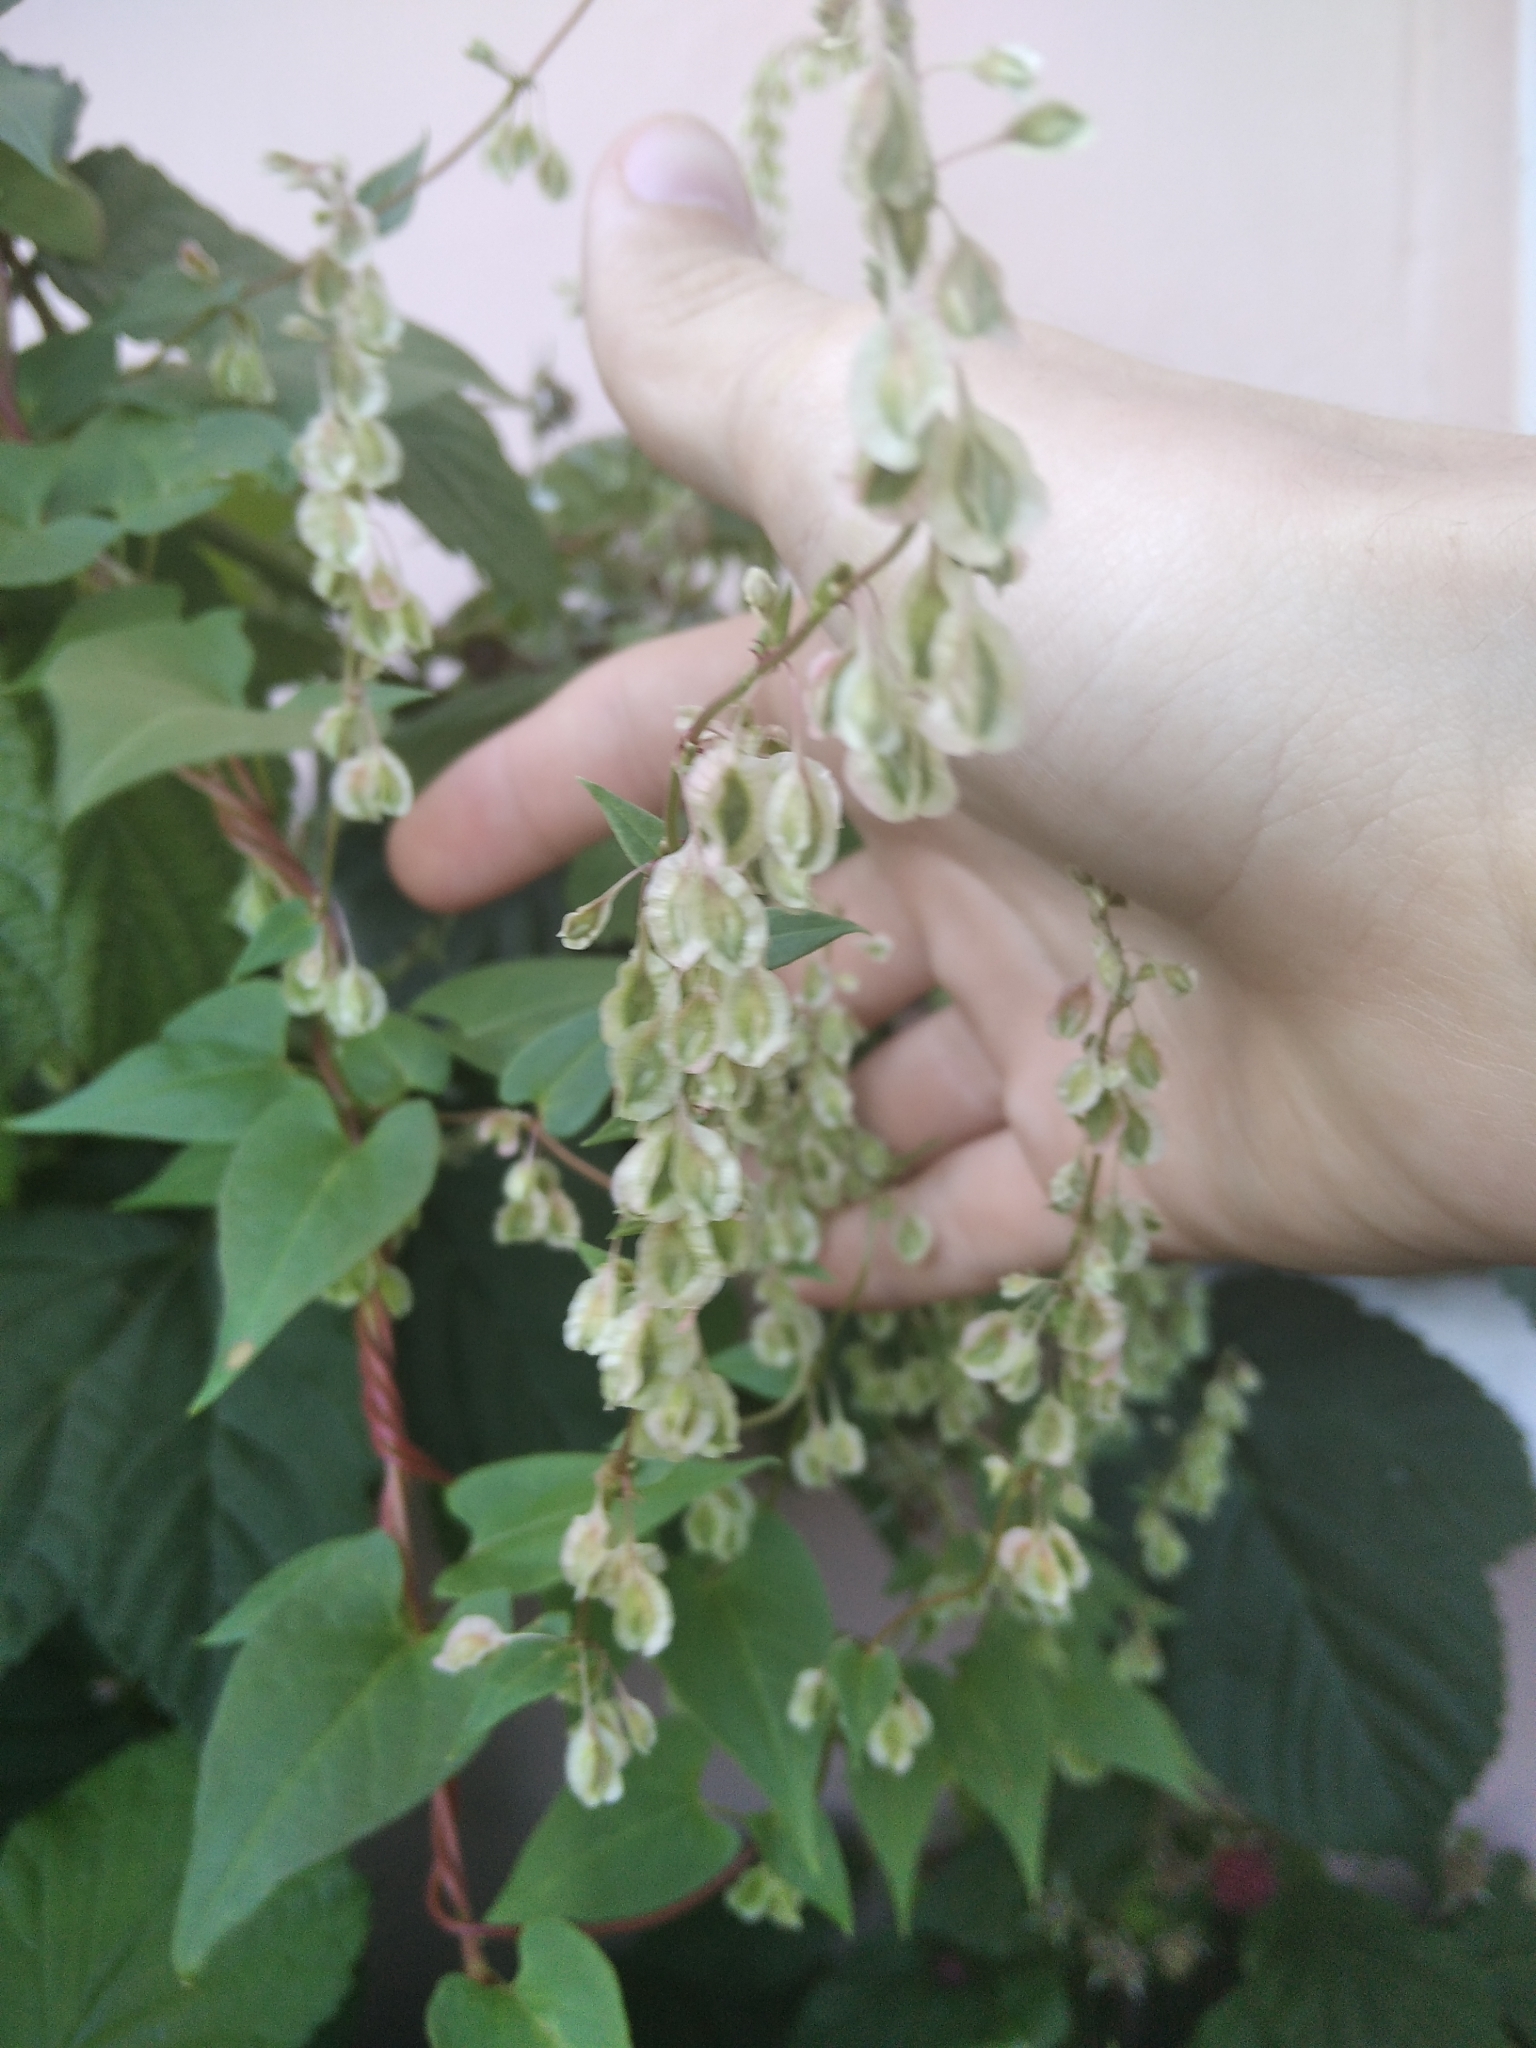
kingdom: Plantae
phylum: Tracheophyta
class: Magnoliopsida
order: Caryophyllales
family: Polygonaceae
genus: Fallopia
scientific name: Fallopia dumetorum
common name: Copse-bindweed
